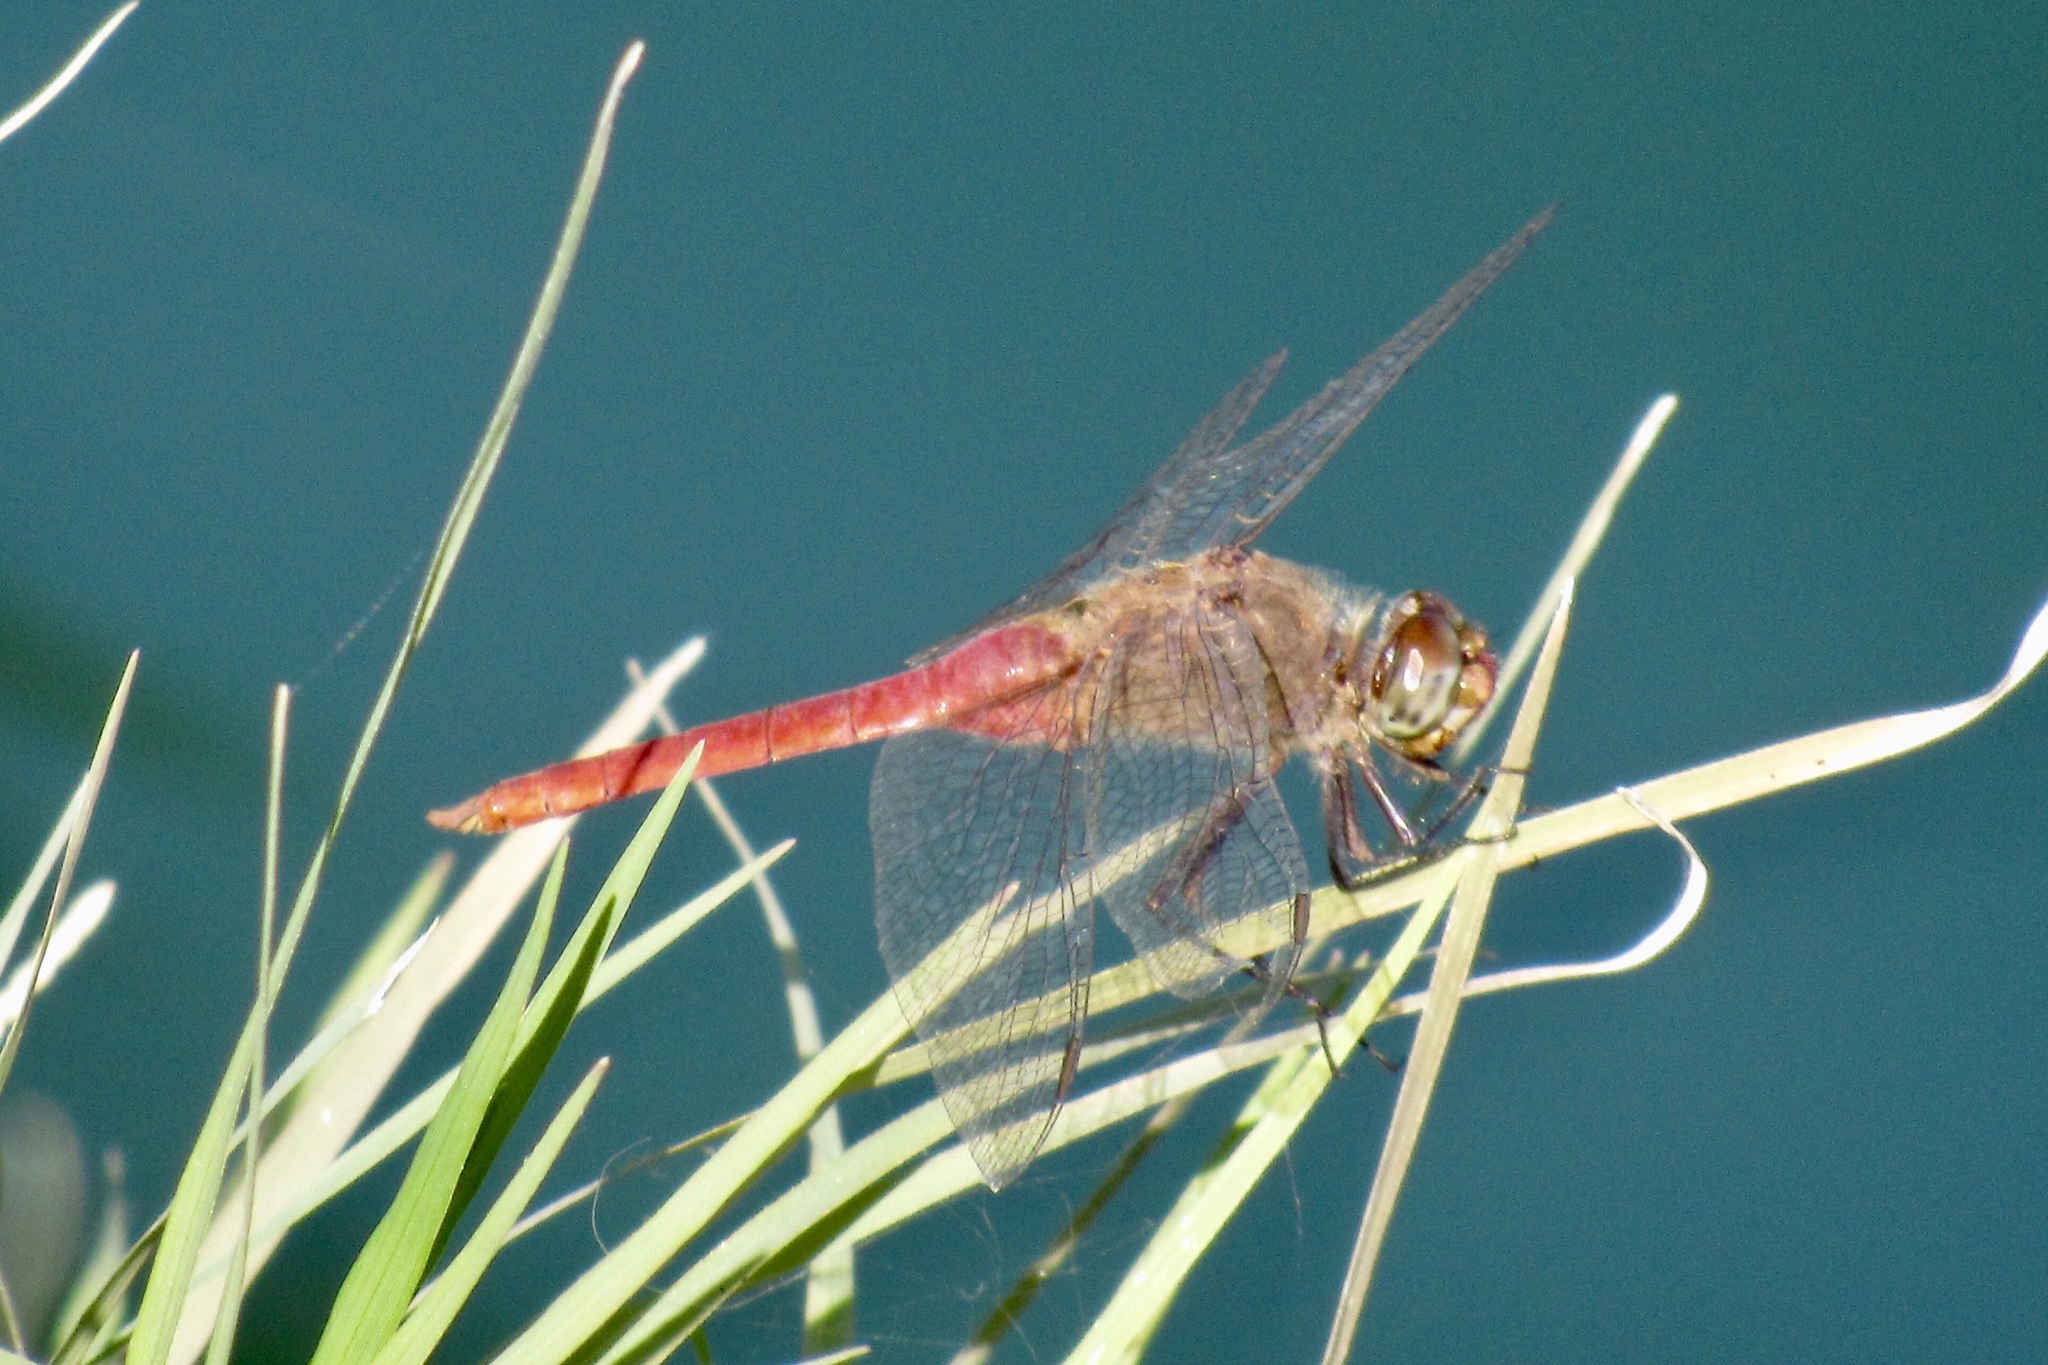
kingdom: Animalia
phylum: Arthropoda
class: Insecta
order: Odonata
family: Libellulidae
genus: Brachymesia
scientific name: Brachymesia furcata
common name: Red-taled pennant
